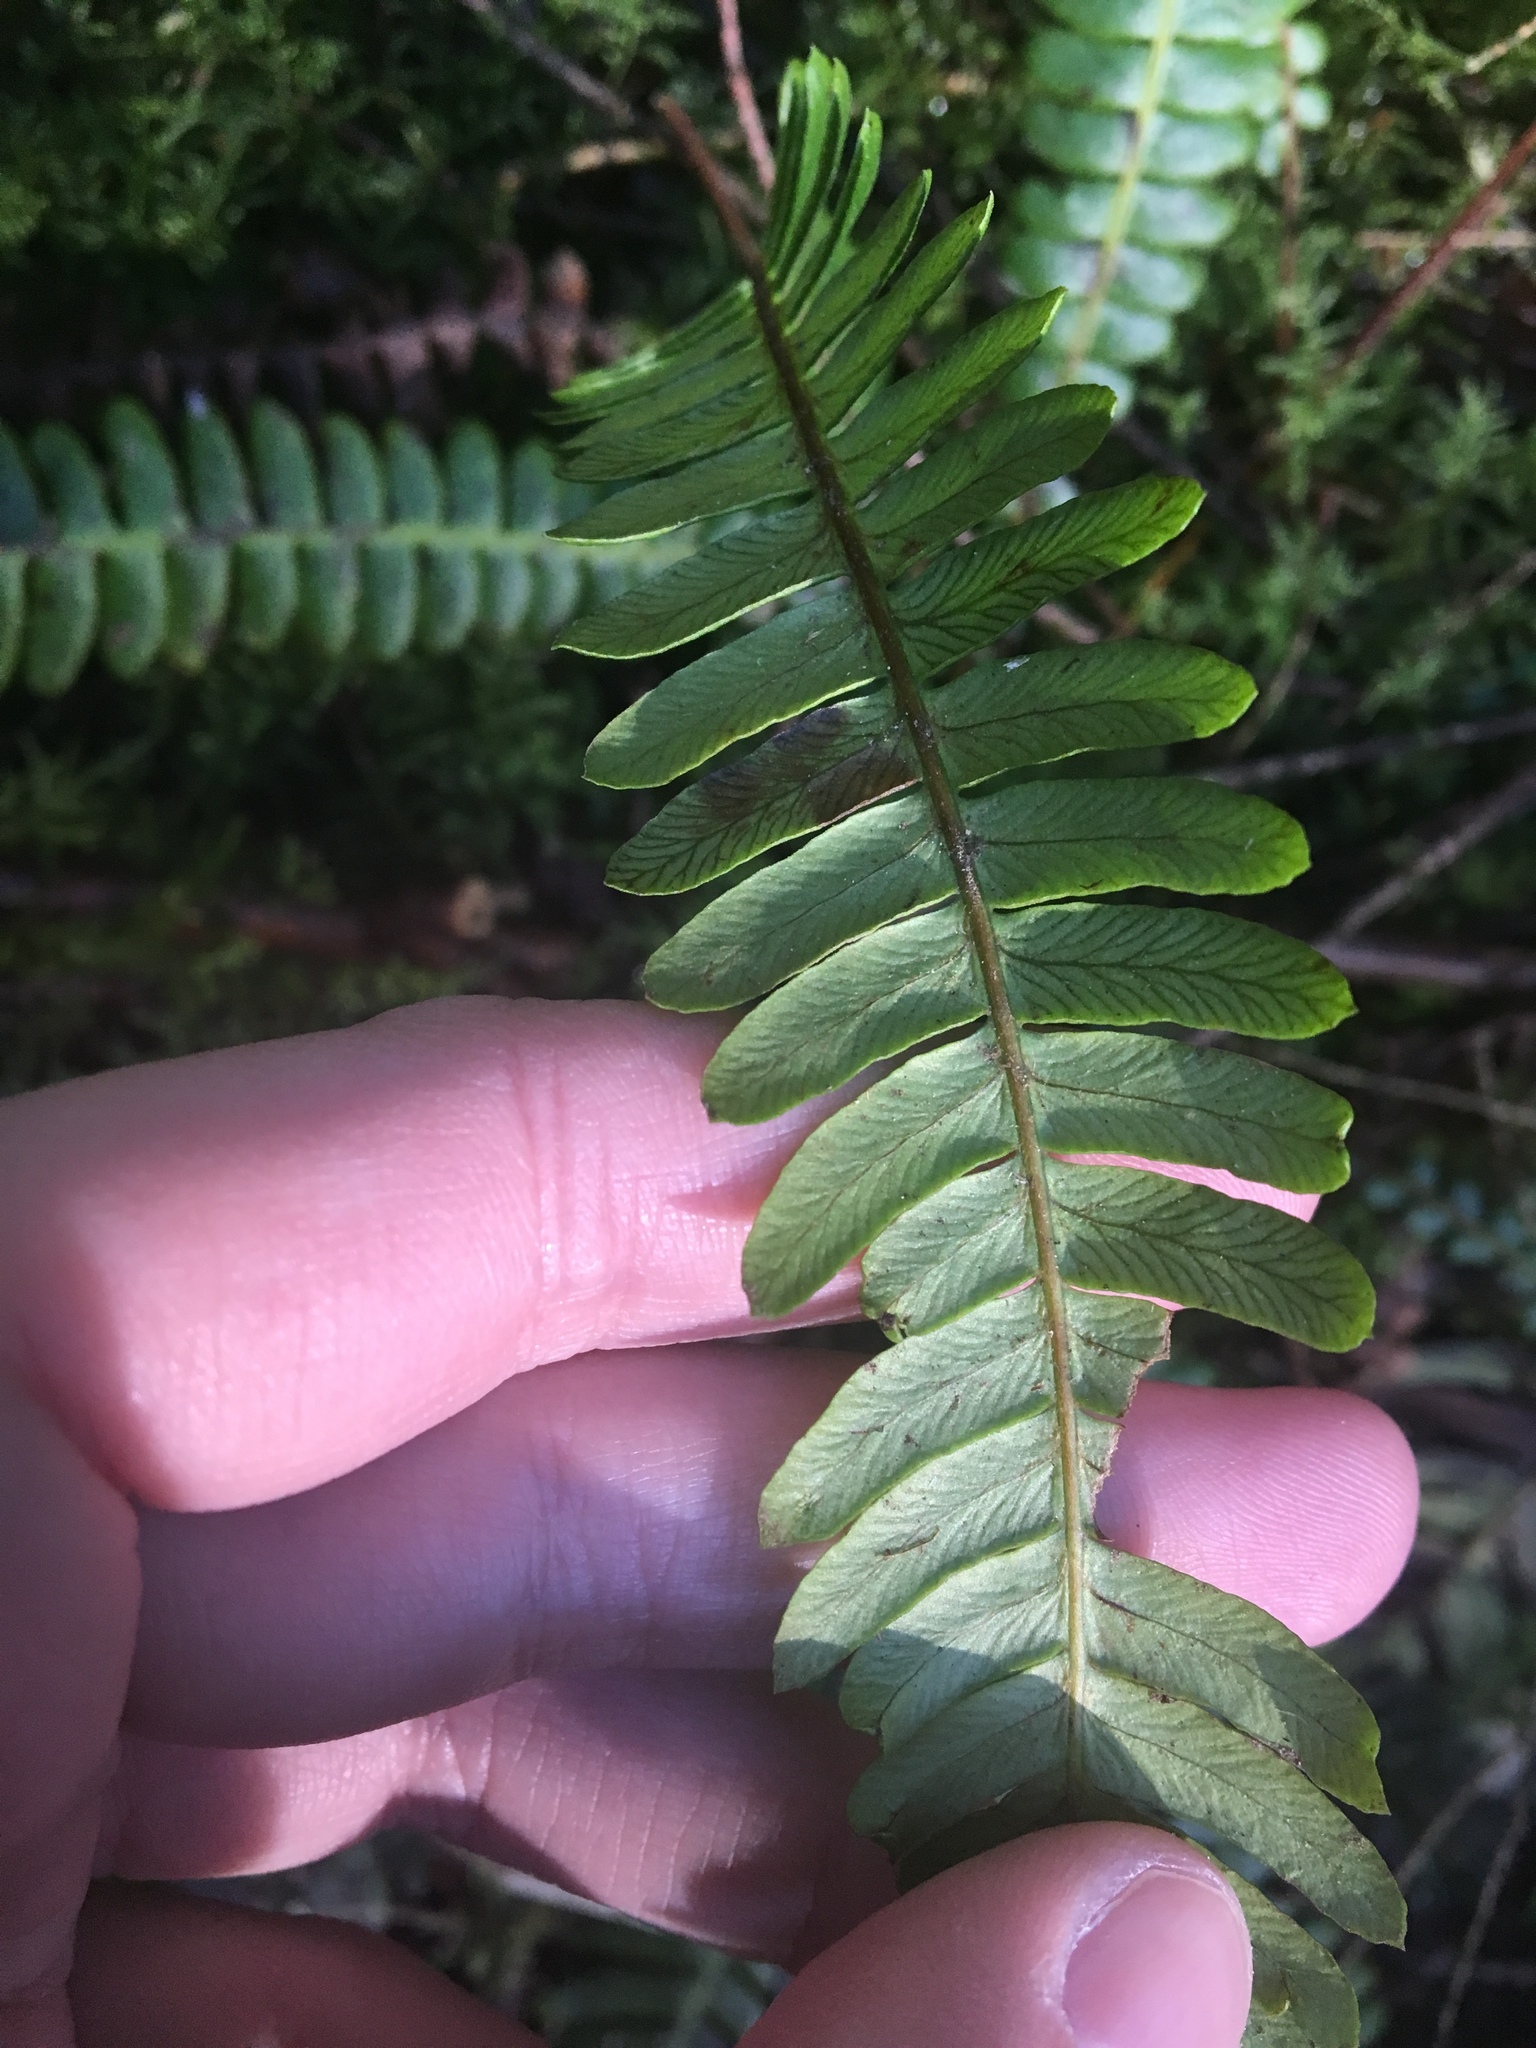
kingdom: Plantae
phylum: Tracheophyta
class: Polypodiopsida
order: Polypodiales
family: Blechnaceae
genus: Struthiopteris
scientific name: Struthiopteris spicant
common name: Deer fern
